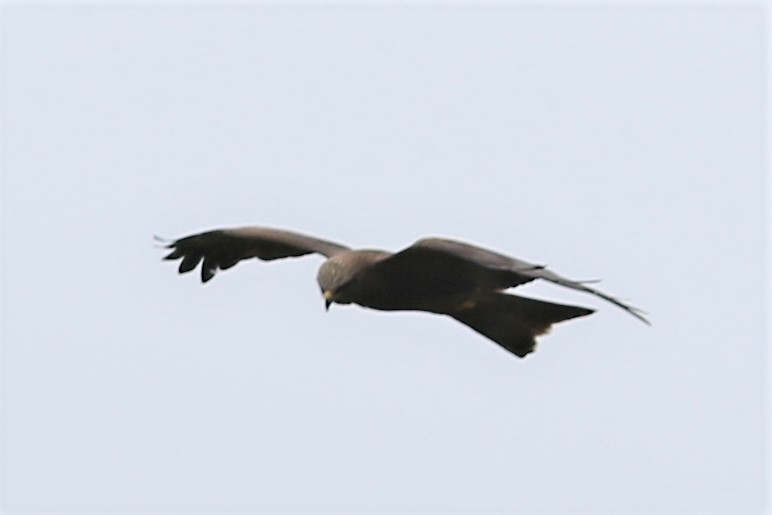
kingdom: Animalia
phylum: Chordata
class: Aves
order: Accipitriformes
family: Accipitridae
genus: Milvus
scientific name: Milvus migrans
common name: Black kite
